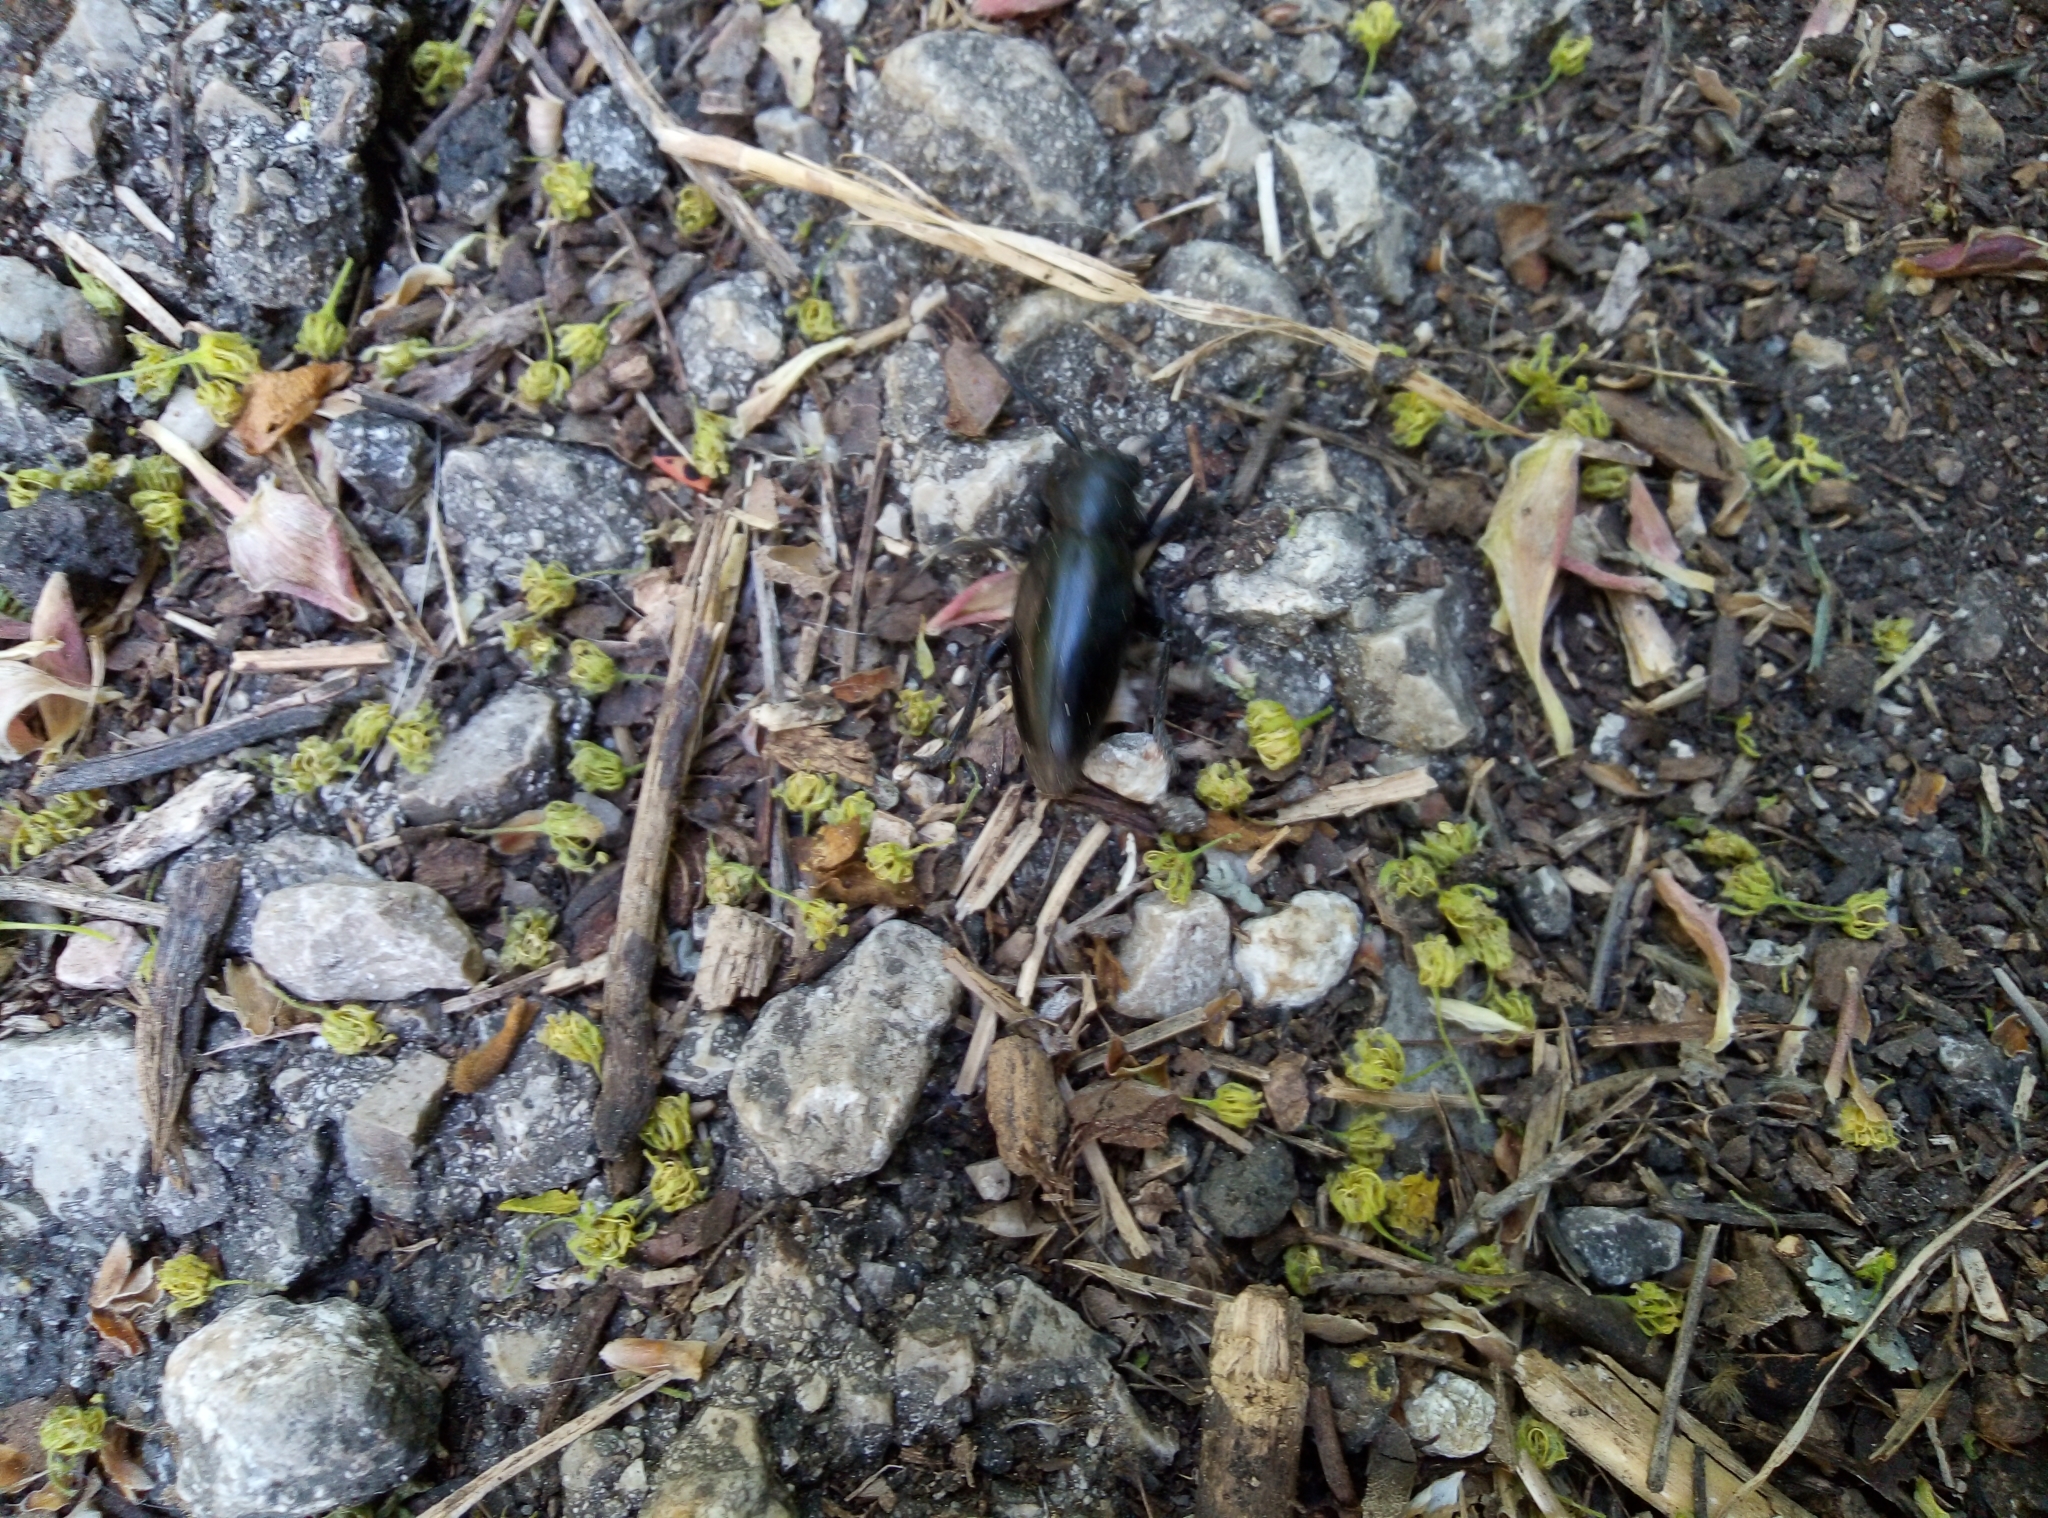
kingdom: Animalia
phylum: Arthropoda
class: Insecta
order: Coleoptera
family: Cerambycidae
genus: Dorcadion
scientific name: Dorcadion aethiops
